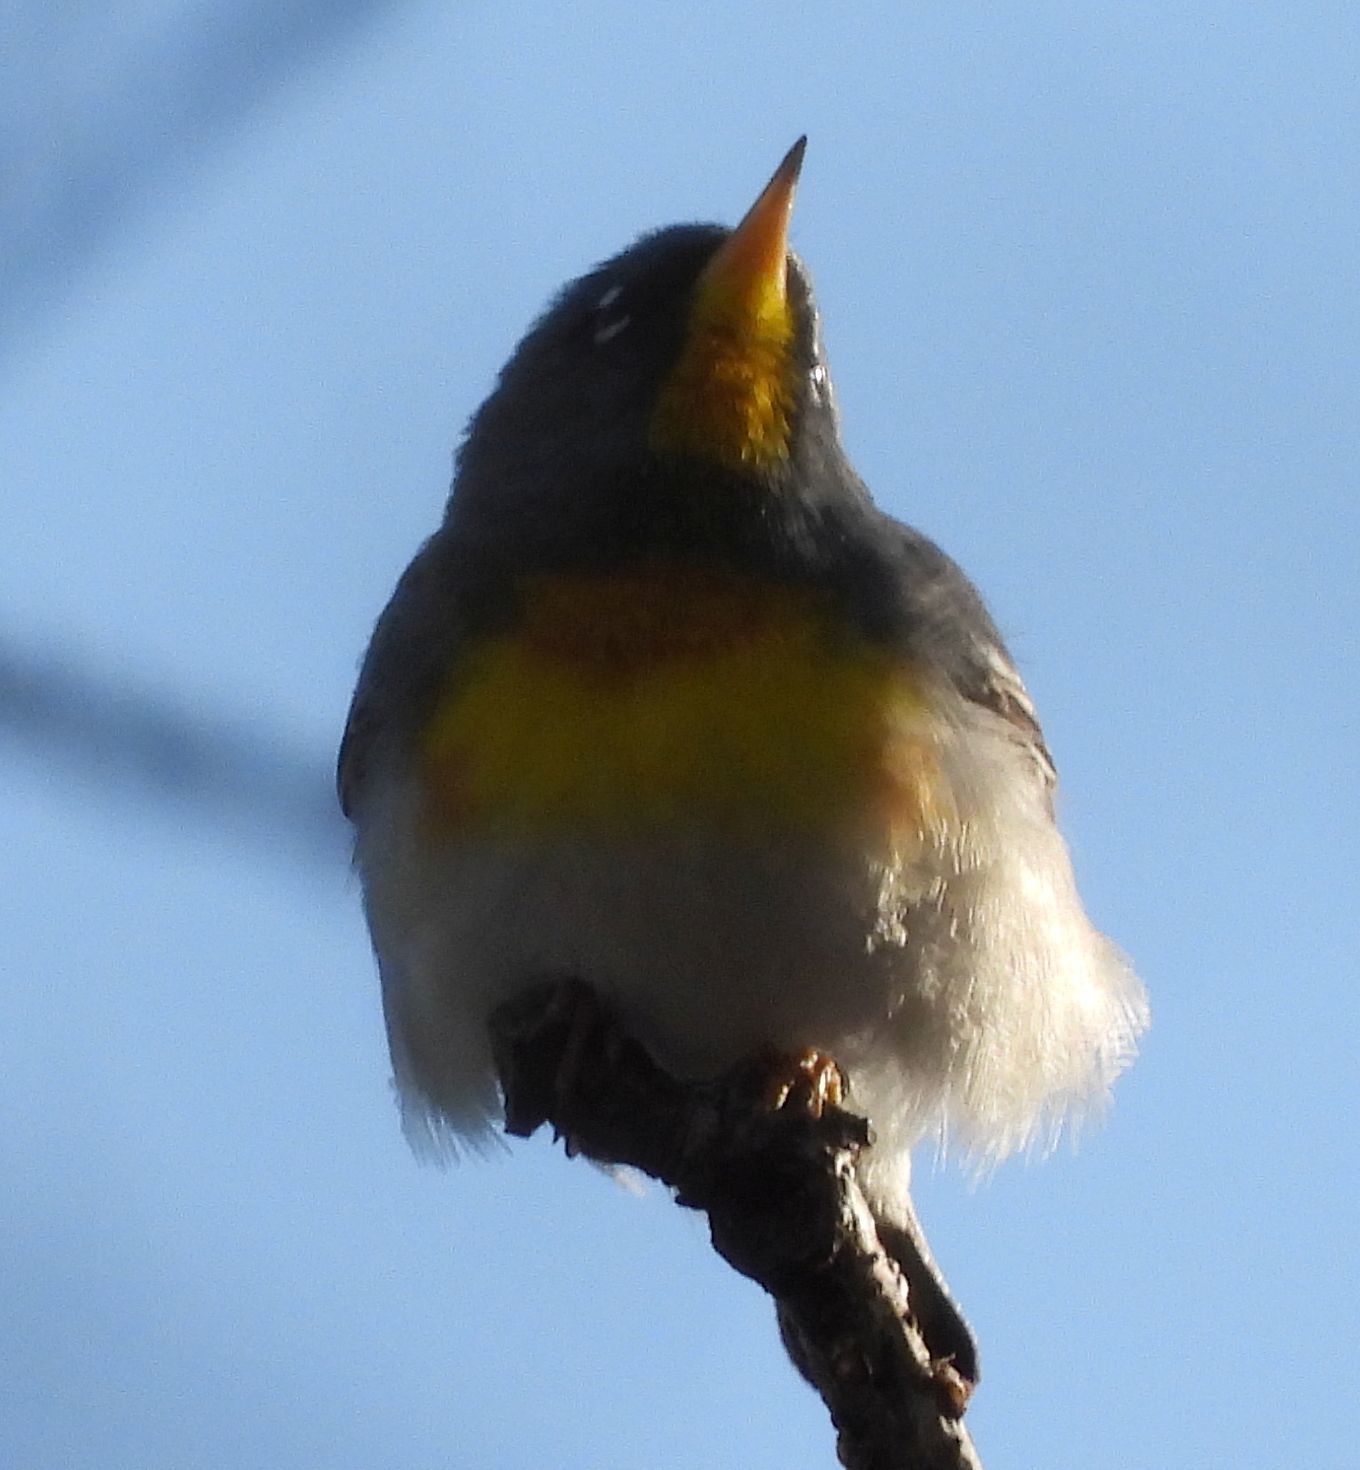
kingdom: Animalia
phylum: Chordata
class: Aves
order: Passeriformes
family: Parulidae
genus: Setophaga
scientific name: Setophaga americana
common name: Northern parula
